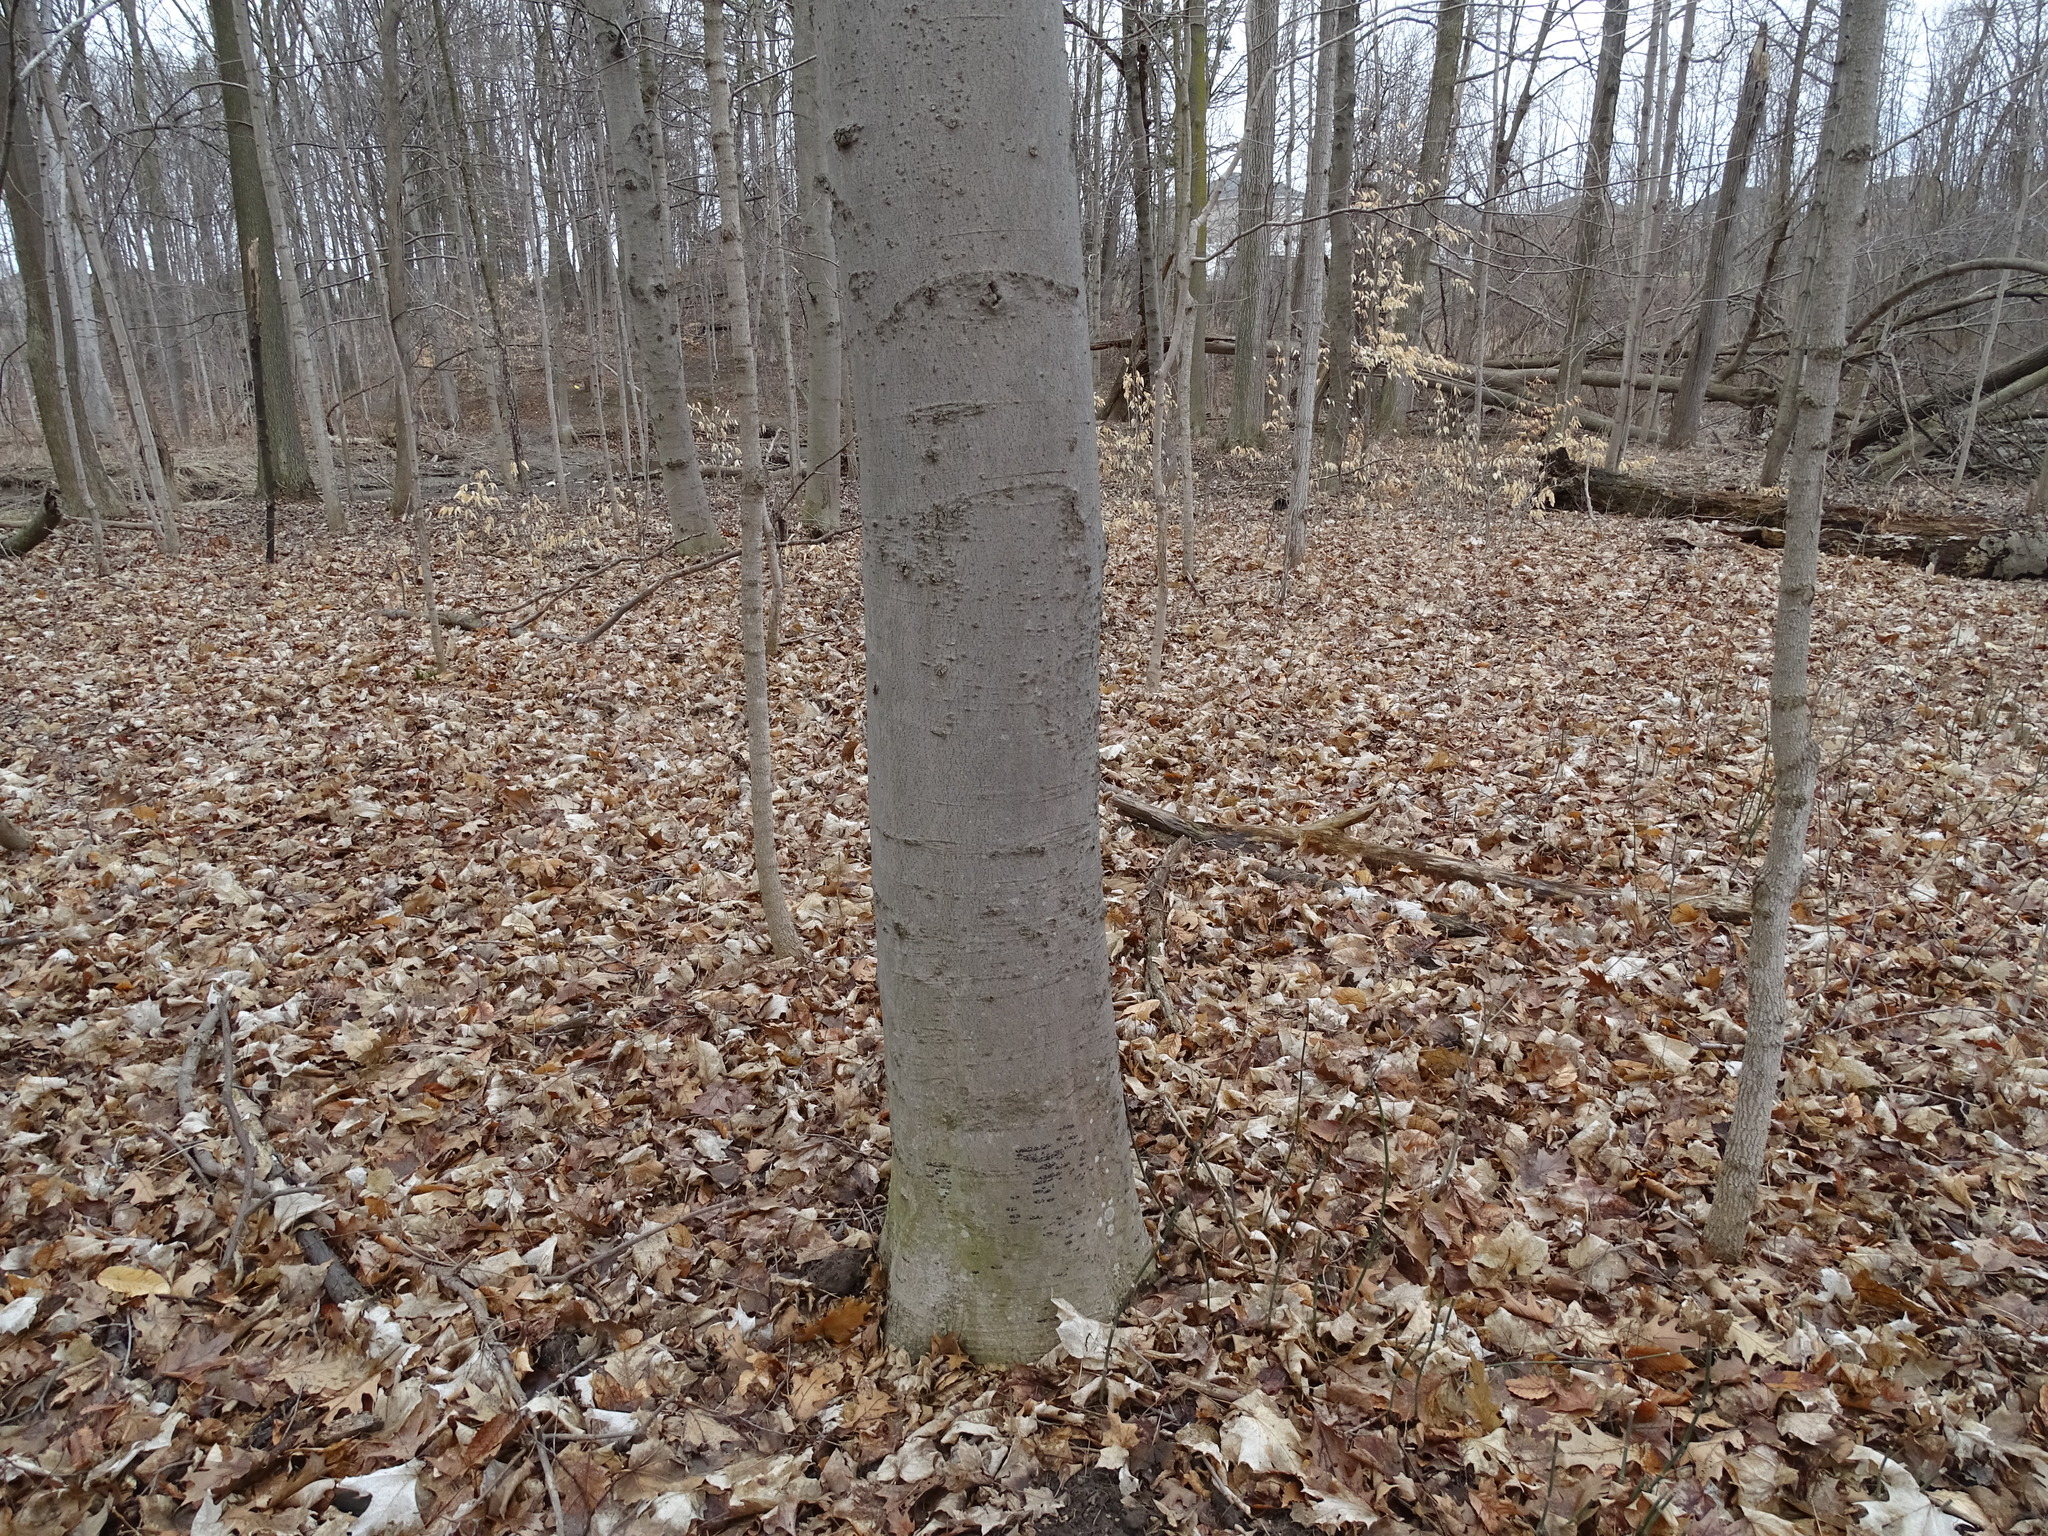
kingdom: Plantae
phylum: Tracheophyta
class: Magnoliopsida
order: Fagales
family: Fagaceae
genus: Fagus
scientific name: Fagus grandifolia
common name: American beech
